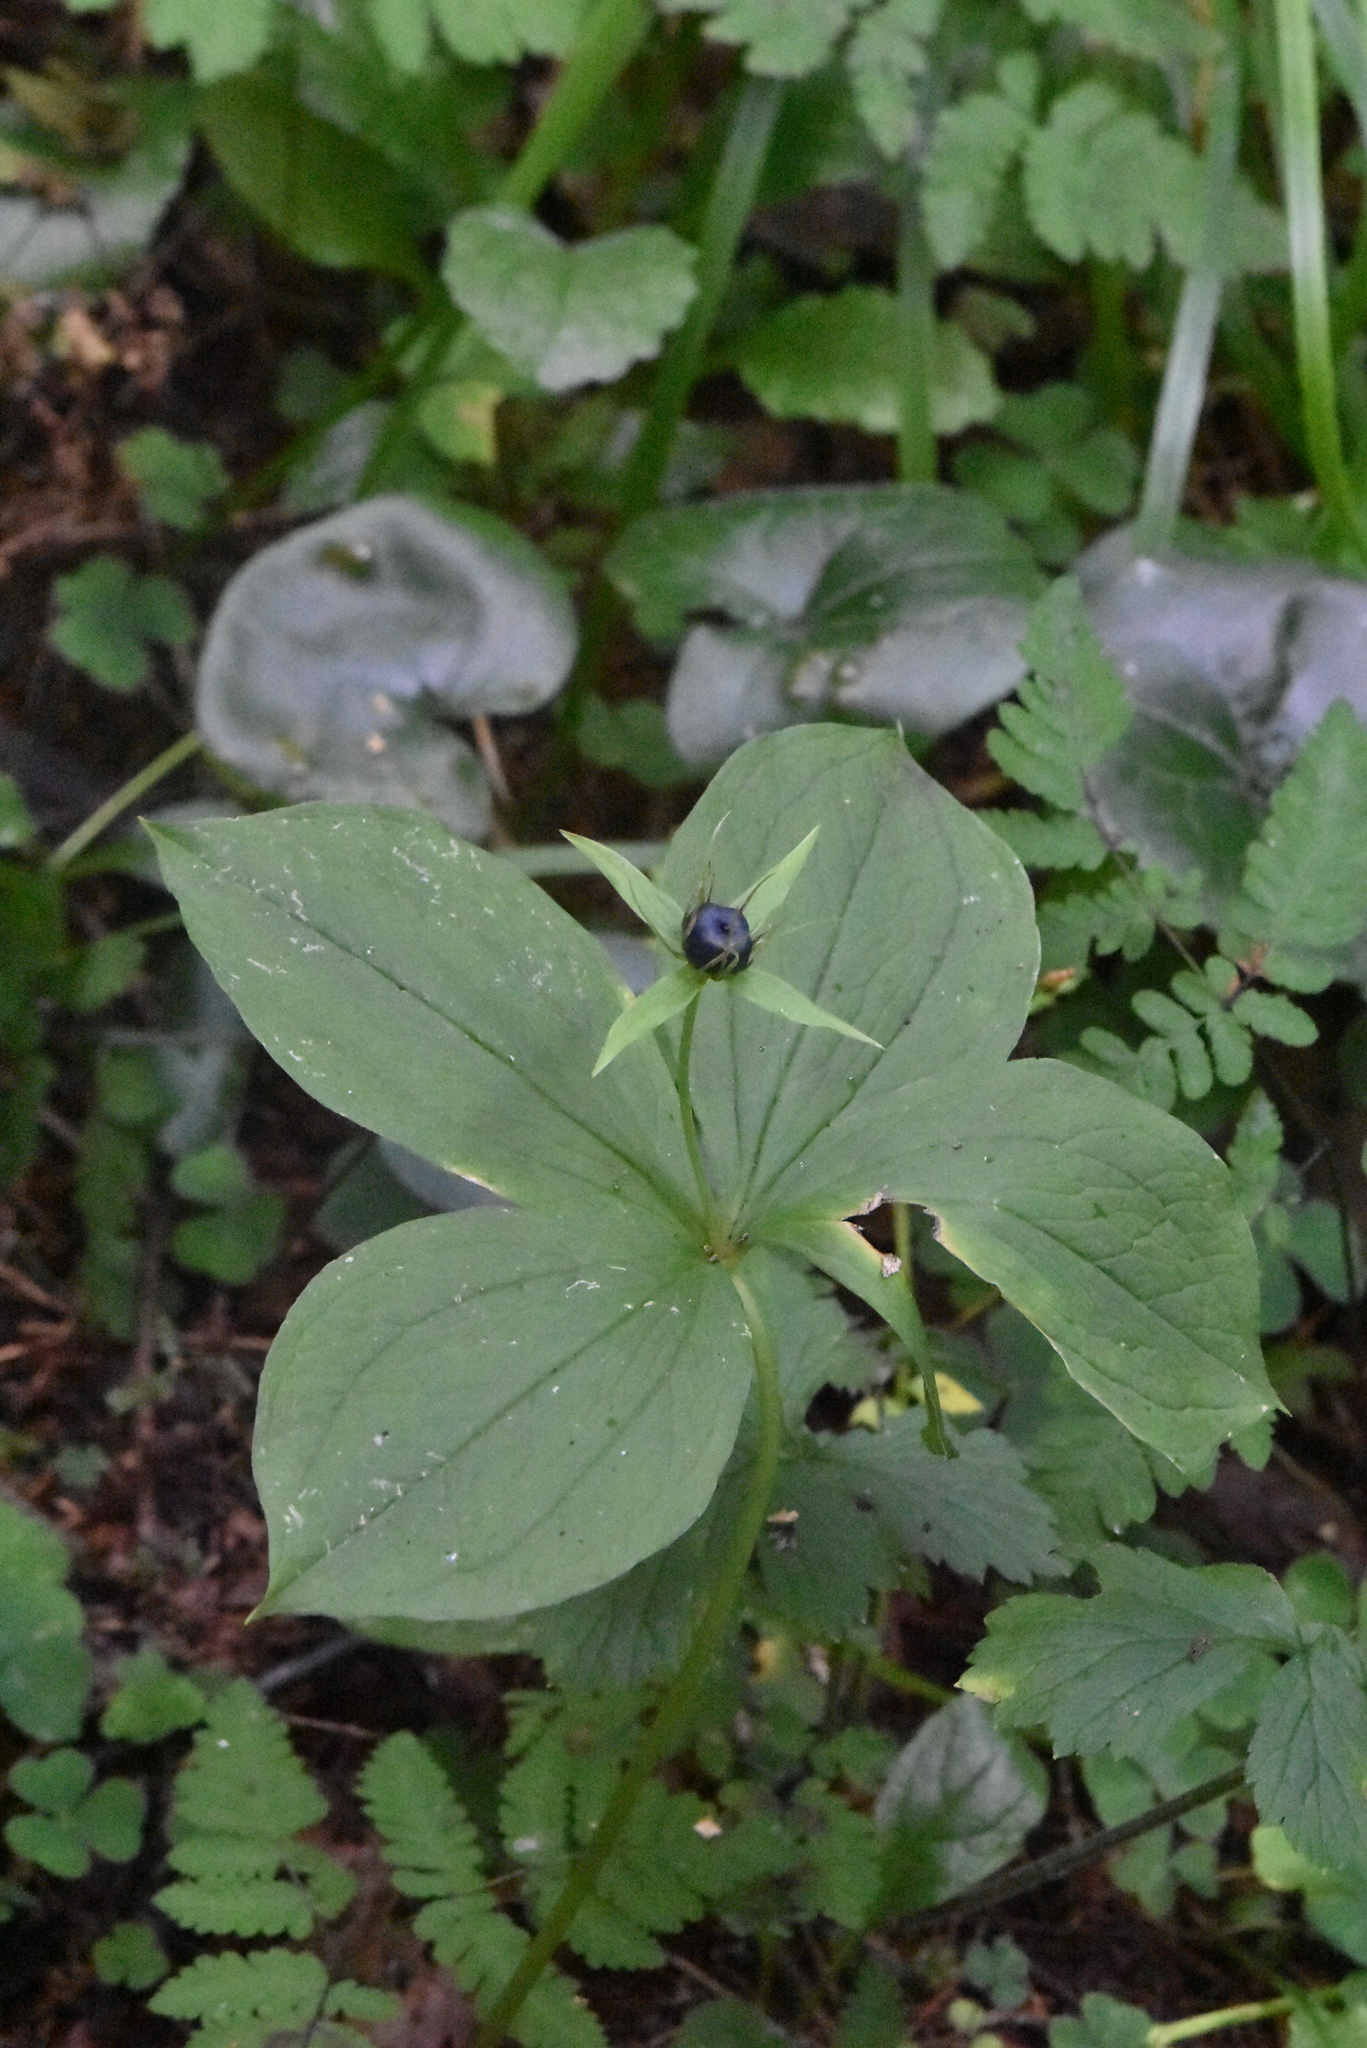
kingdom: Plantae
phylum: Tracheophyta
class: Liliopsida
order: Liliales
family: Melanthiaceae
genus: Paris
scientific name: Paris quadrifolia
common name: Herb-paris
